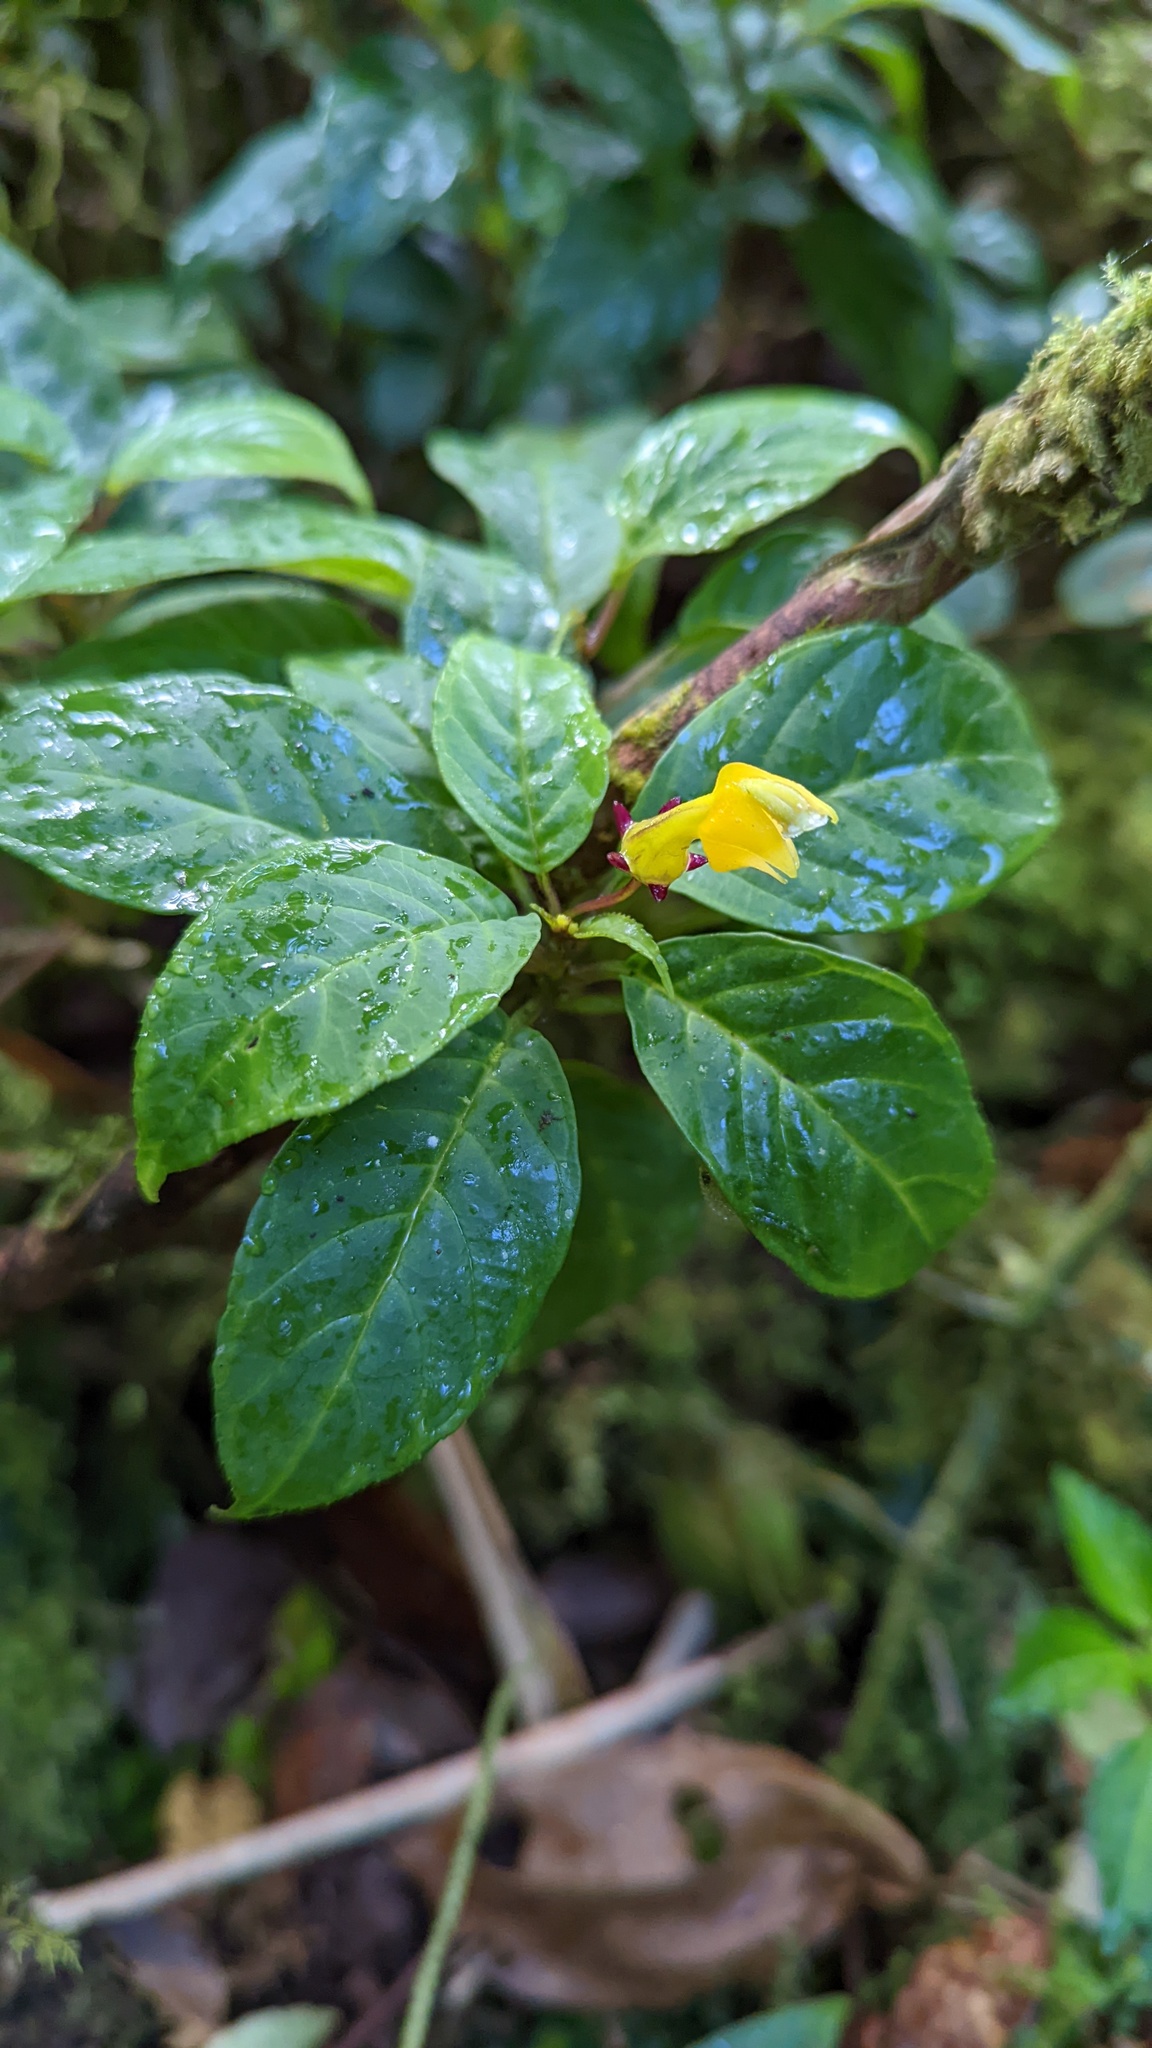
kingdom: Plantae
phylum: Tracheophyta
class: Magnoliopsida
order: Asterales
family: Campanulaceae
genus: Burmeistera
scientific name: Burmeistera parviflora
